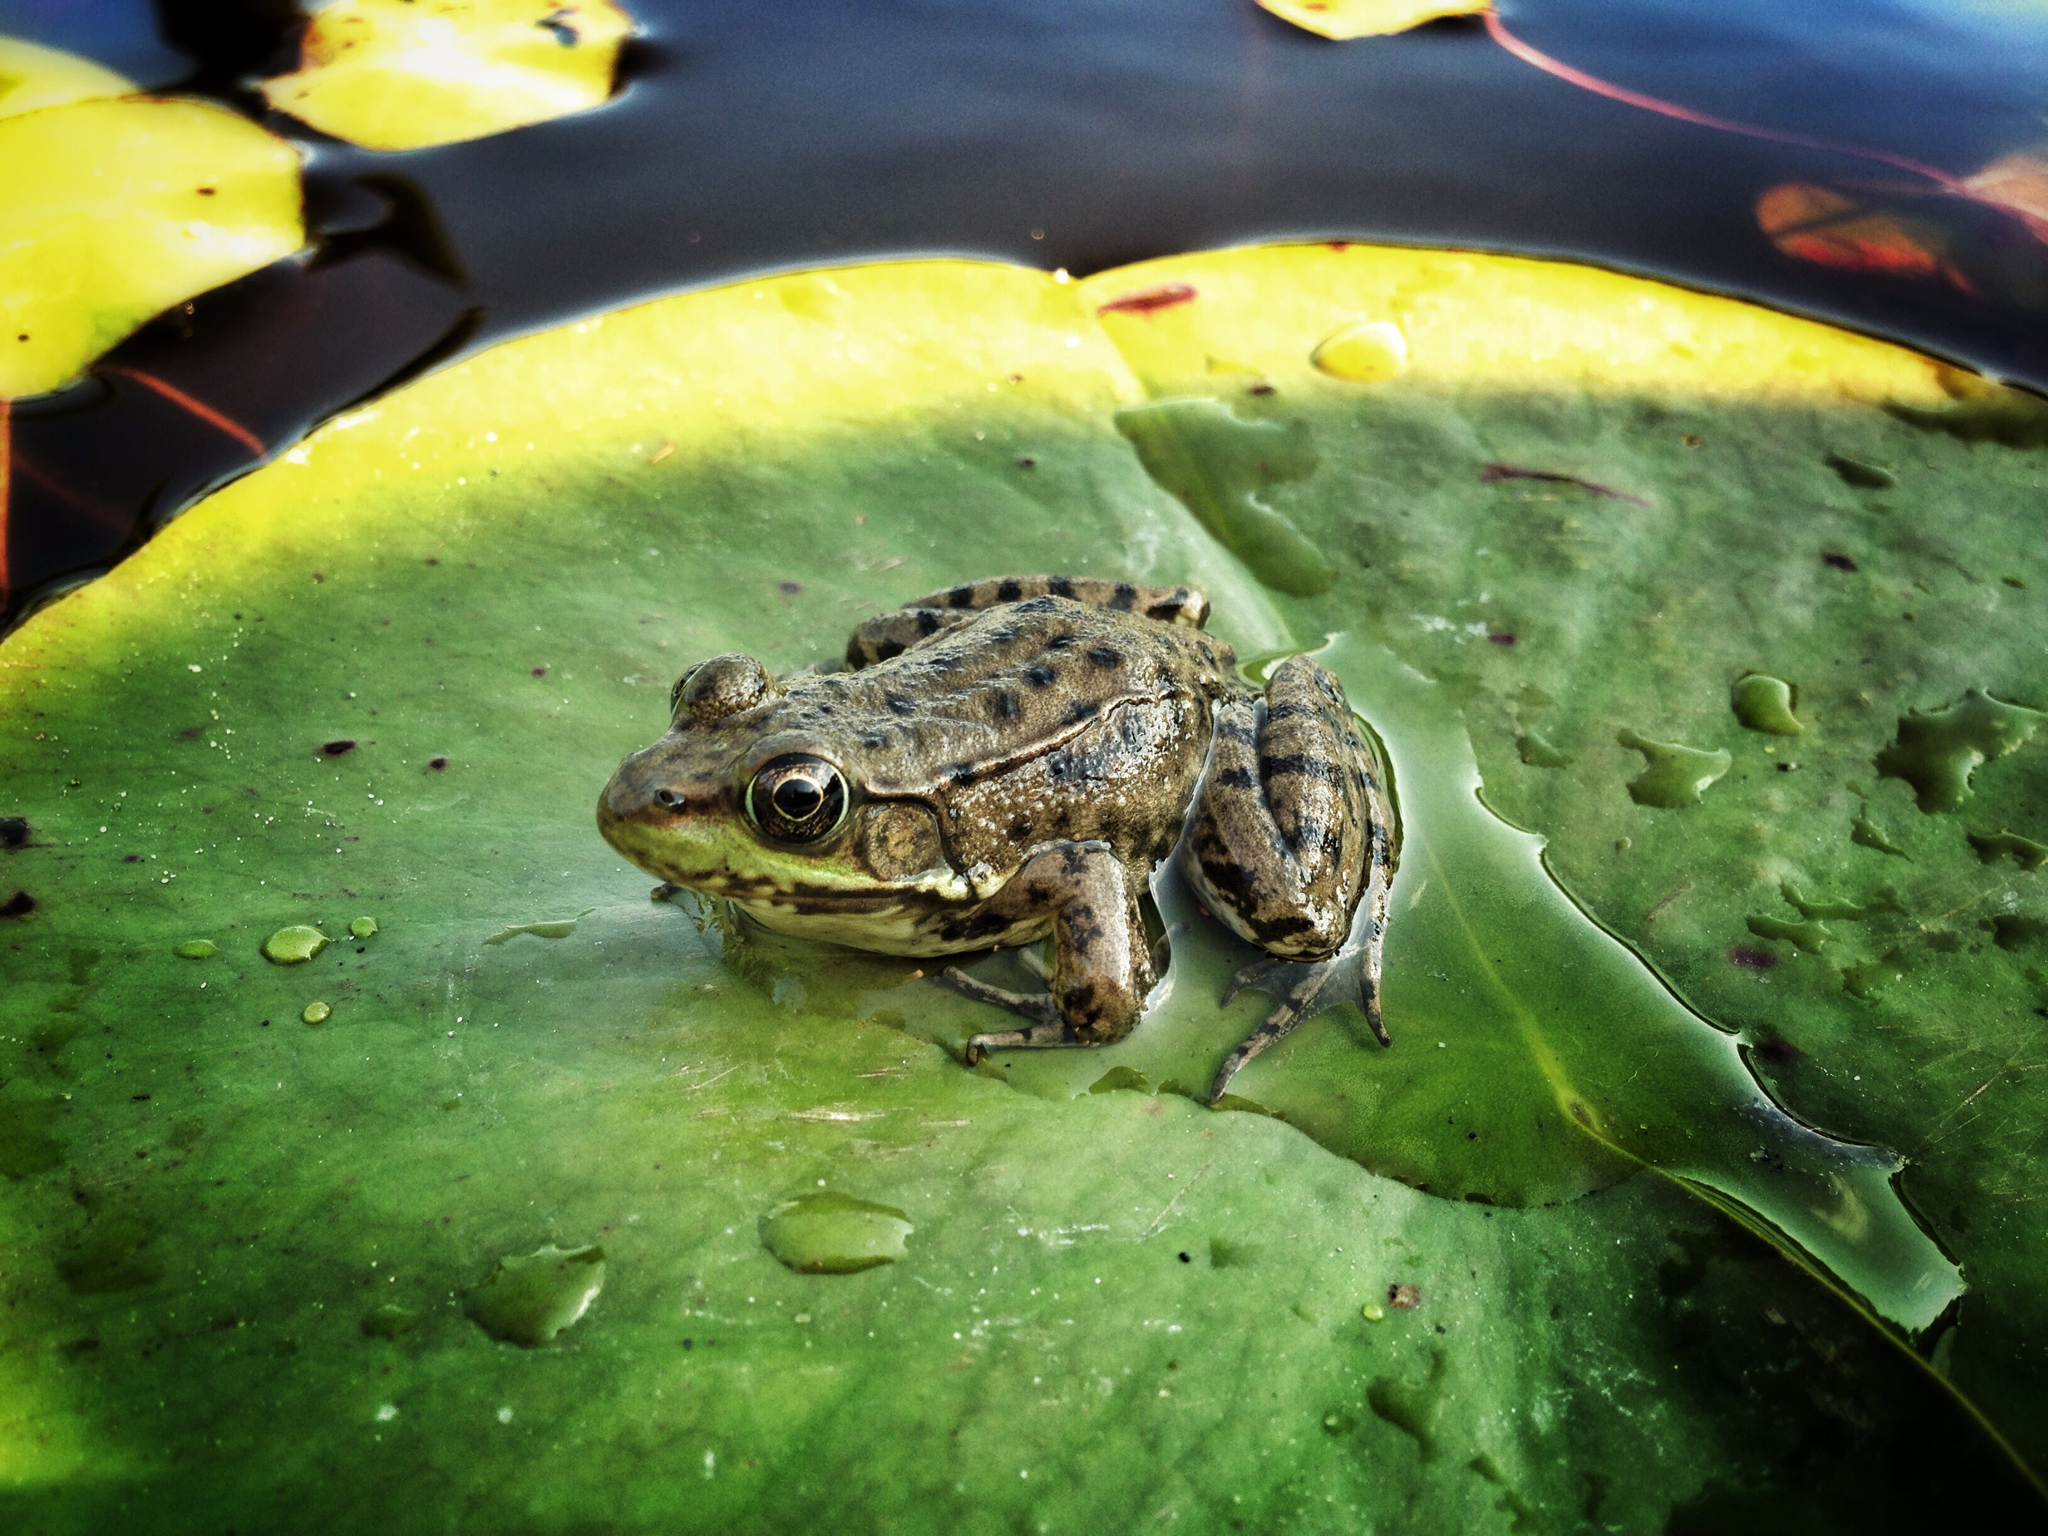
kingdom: Animalia
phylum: Chordata
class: Amphibia
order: Anura
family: Ranidae
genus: Lithobates
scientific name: Lithobates clamitans
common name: Green frog
